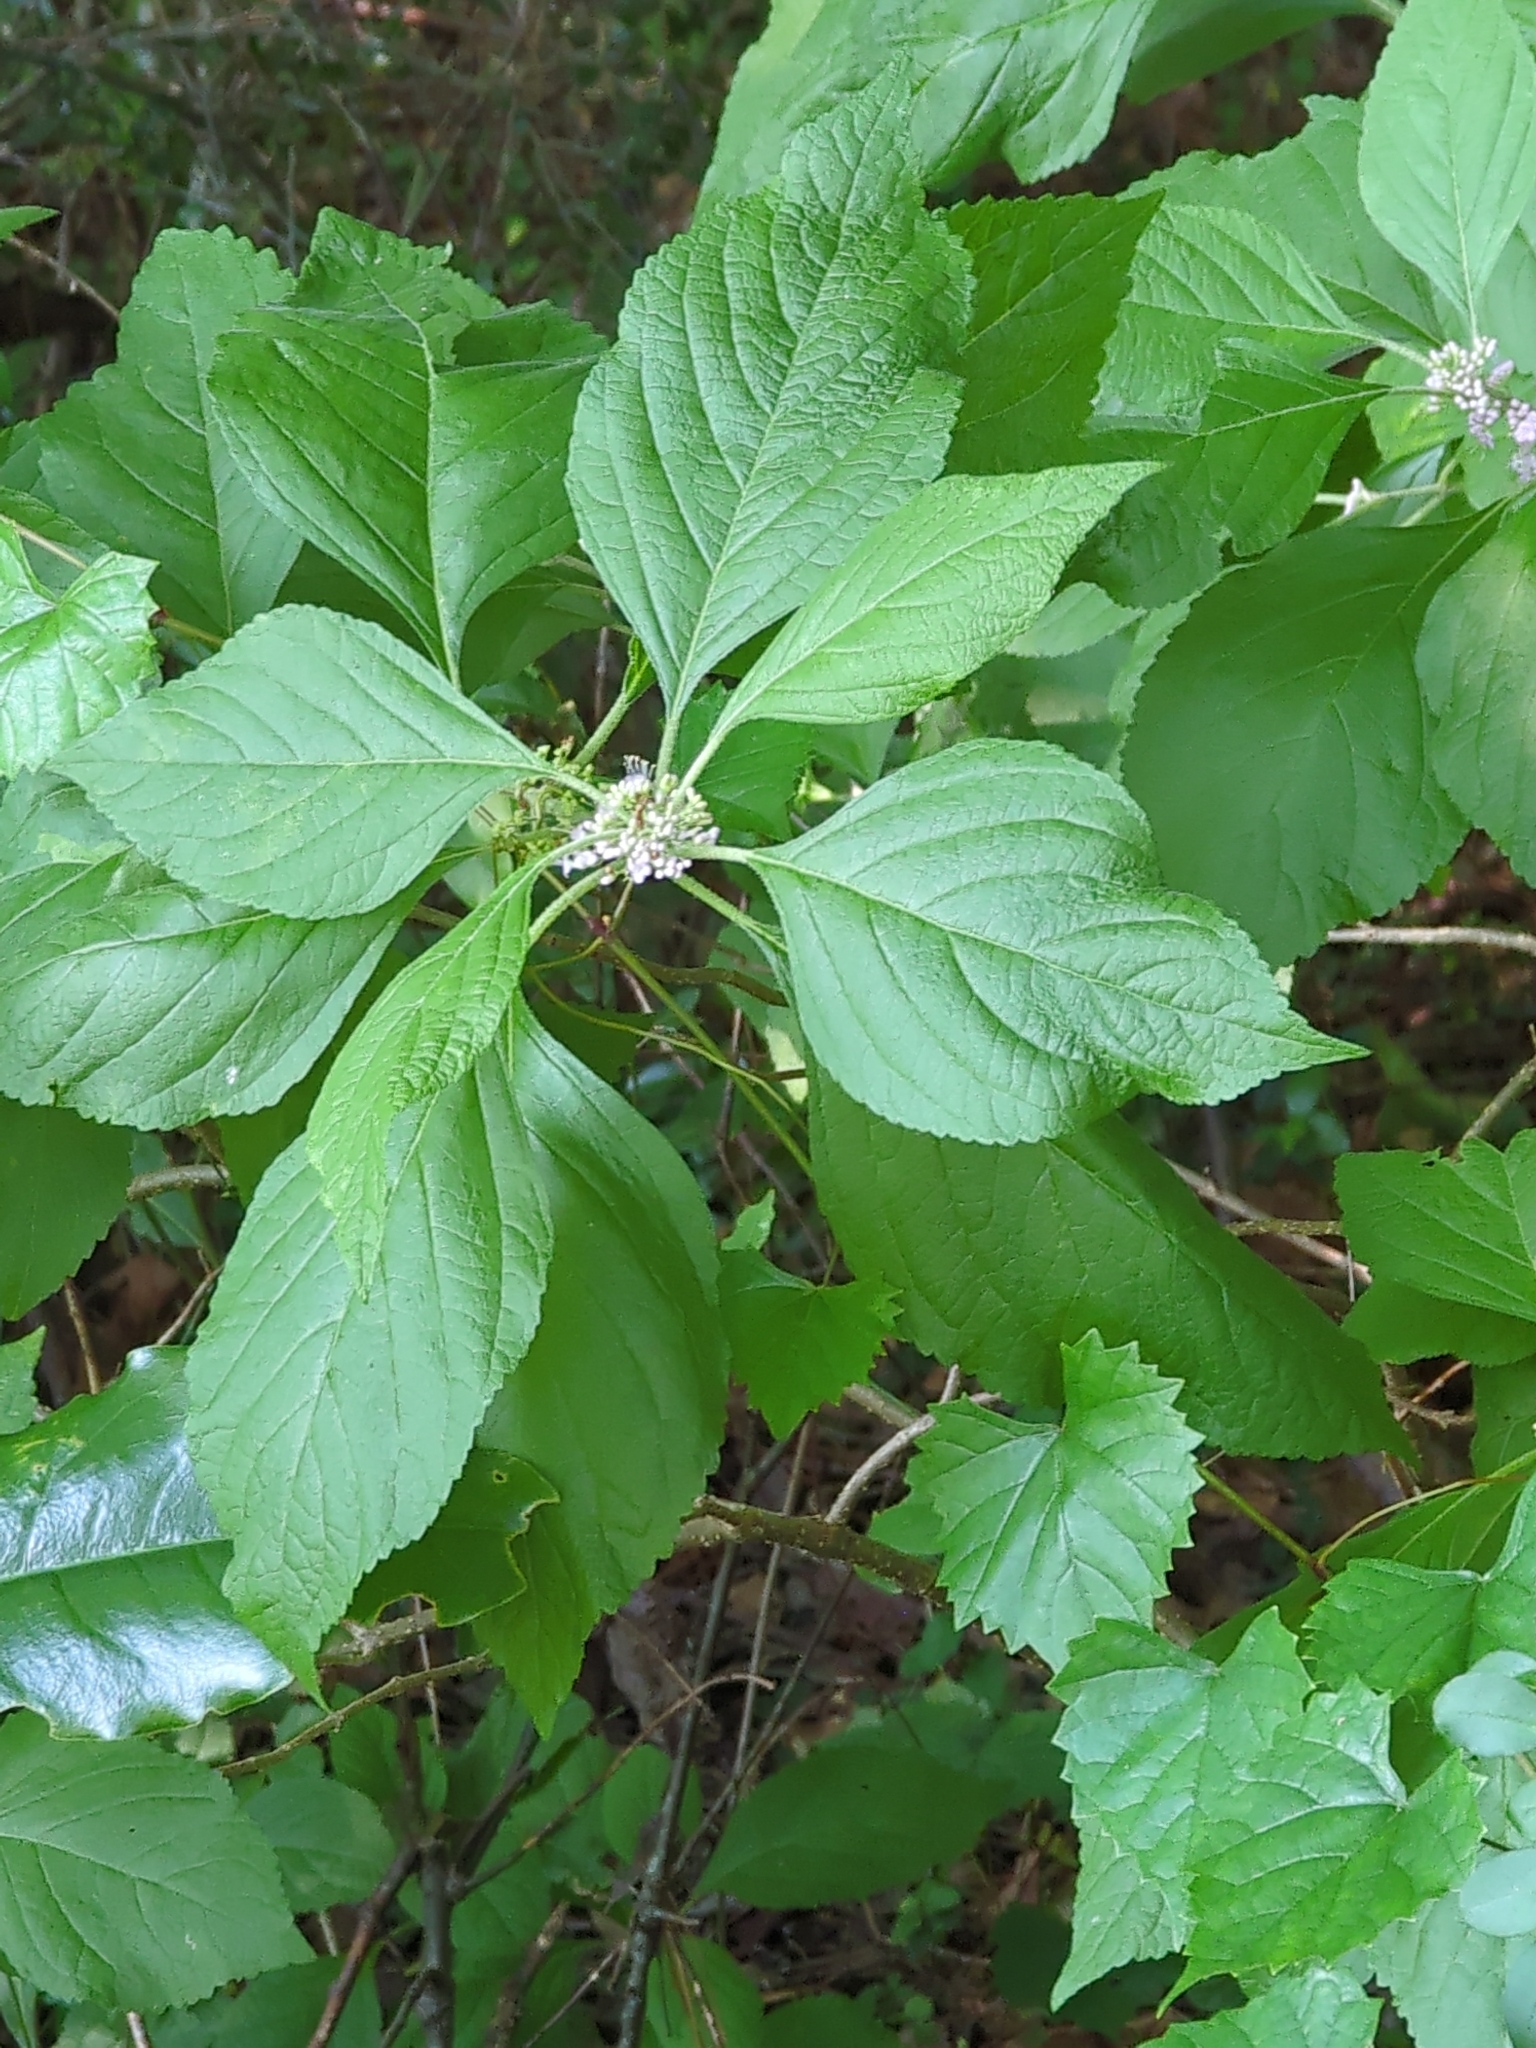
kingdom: Plantae
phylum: Tracheophyta
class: Magnoliopsida
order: Lamiales
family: Lamiaceae
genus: Callicarpa
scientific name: Callicarpa americana
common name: American beautyberry
